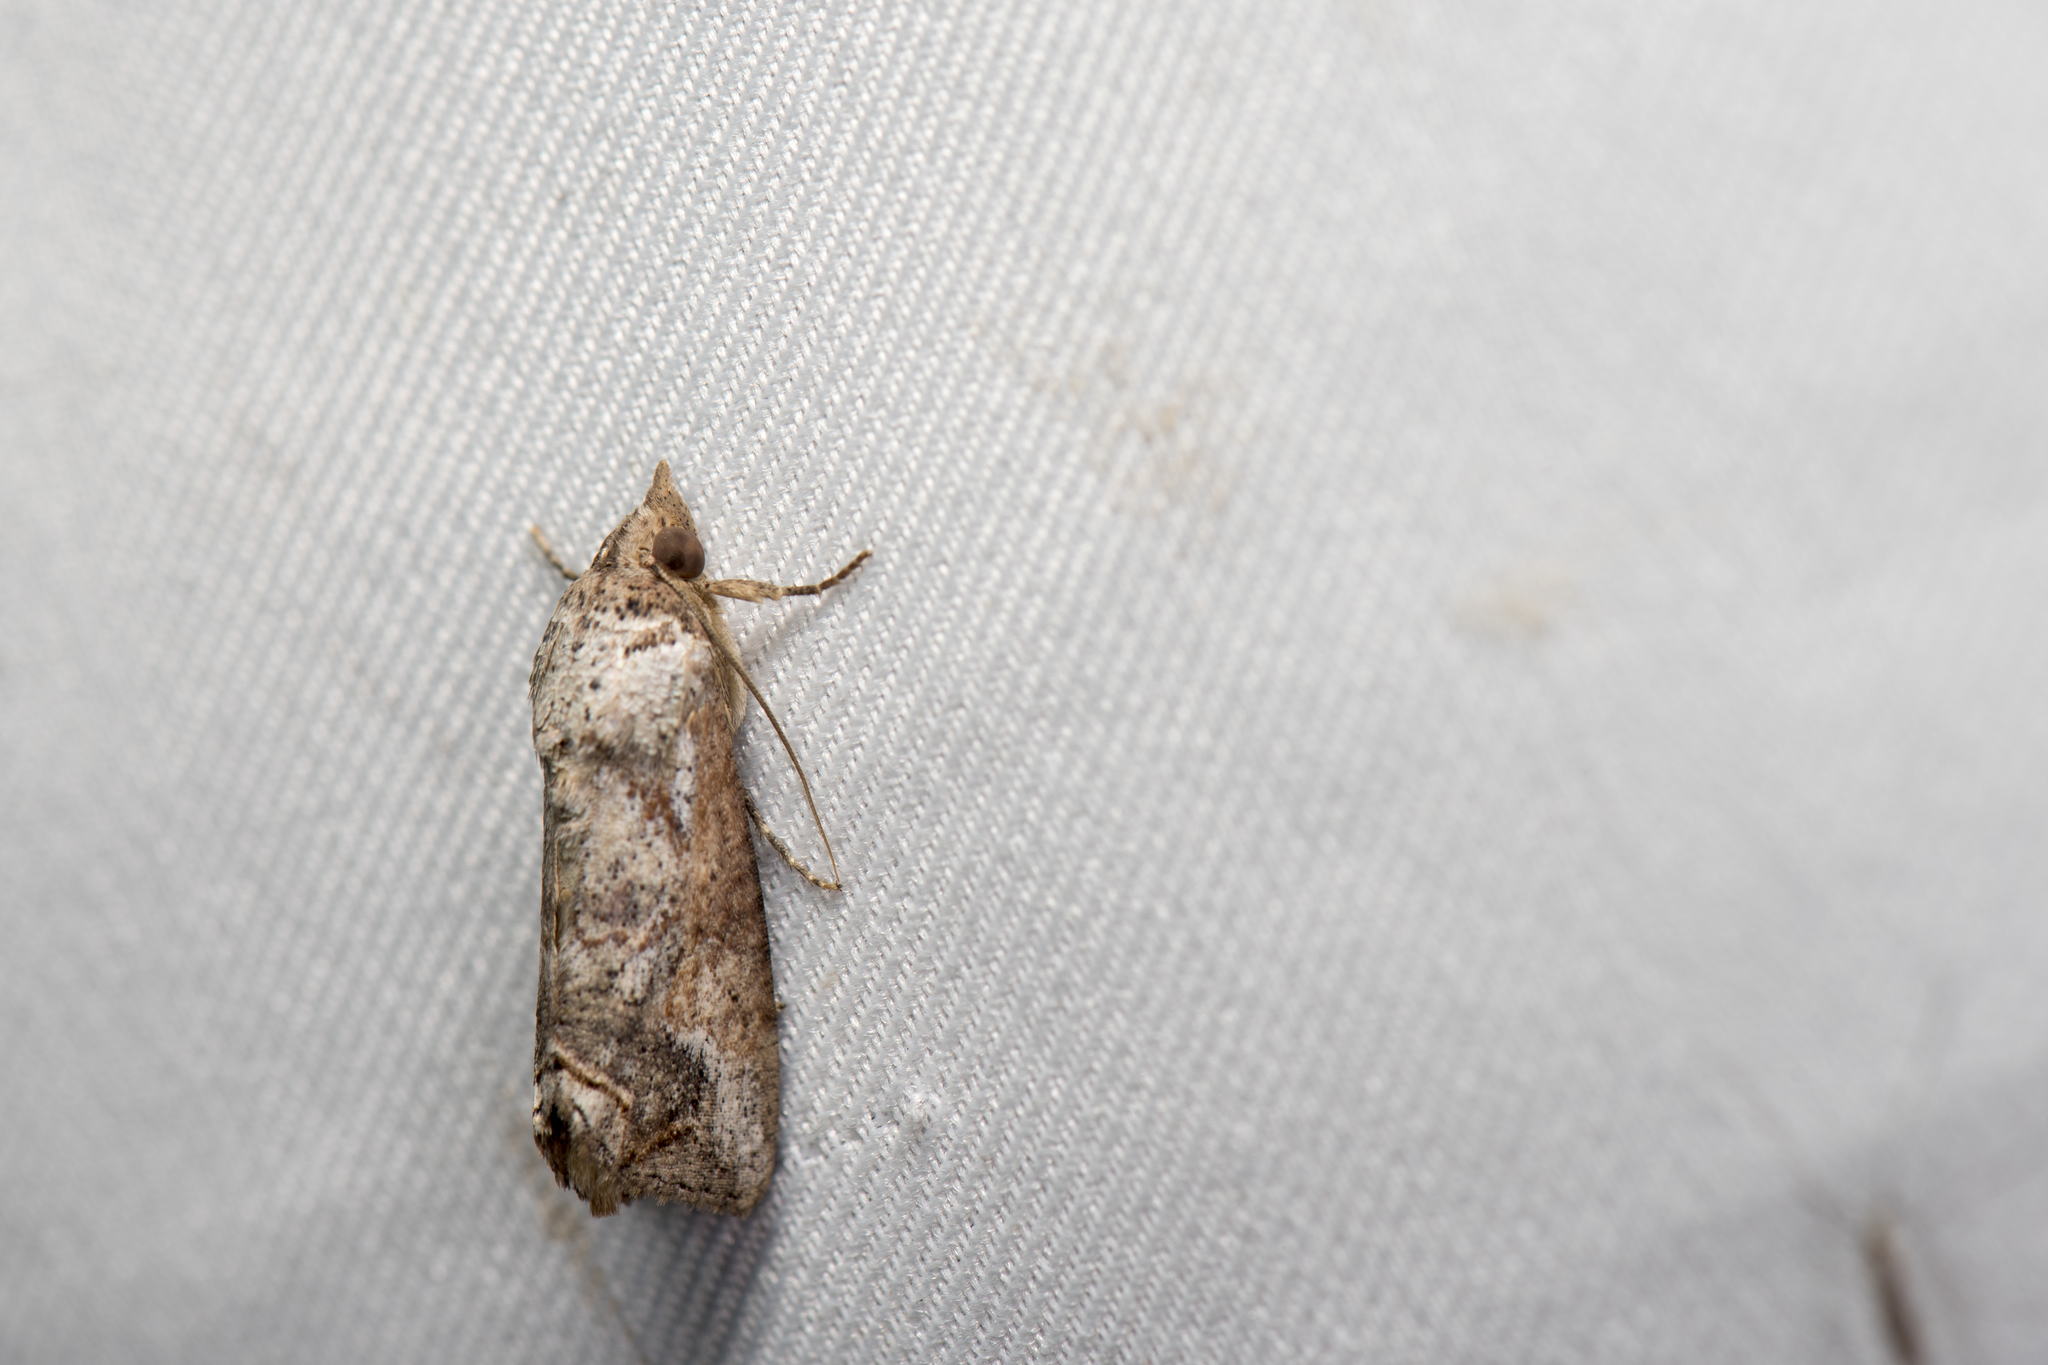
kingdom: Animalia
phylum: Arthropoda
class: Insecta
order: Lepidoptera
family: Erebidae
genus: Hypocala
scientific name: Hypocala deflorata
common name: Moth
